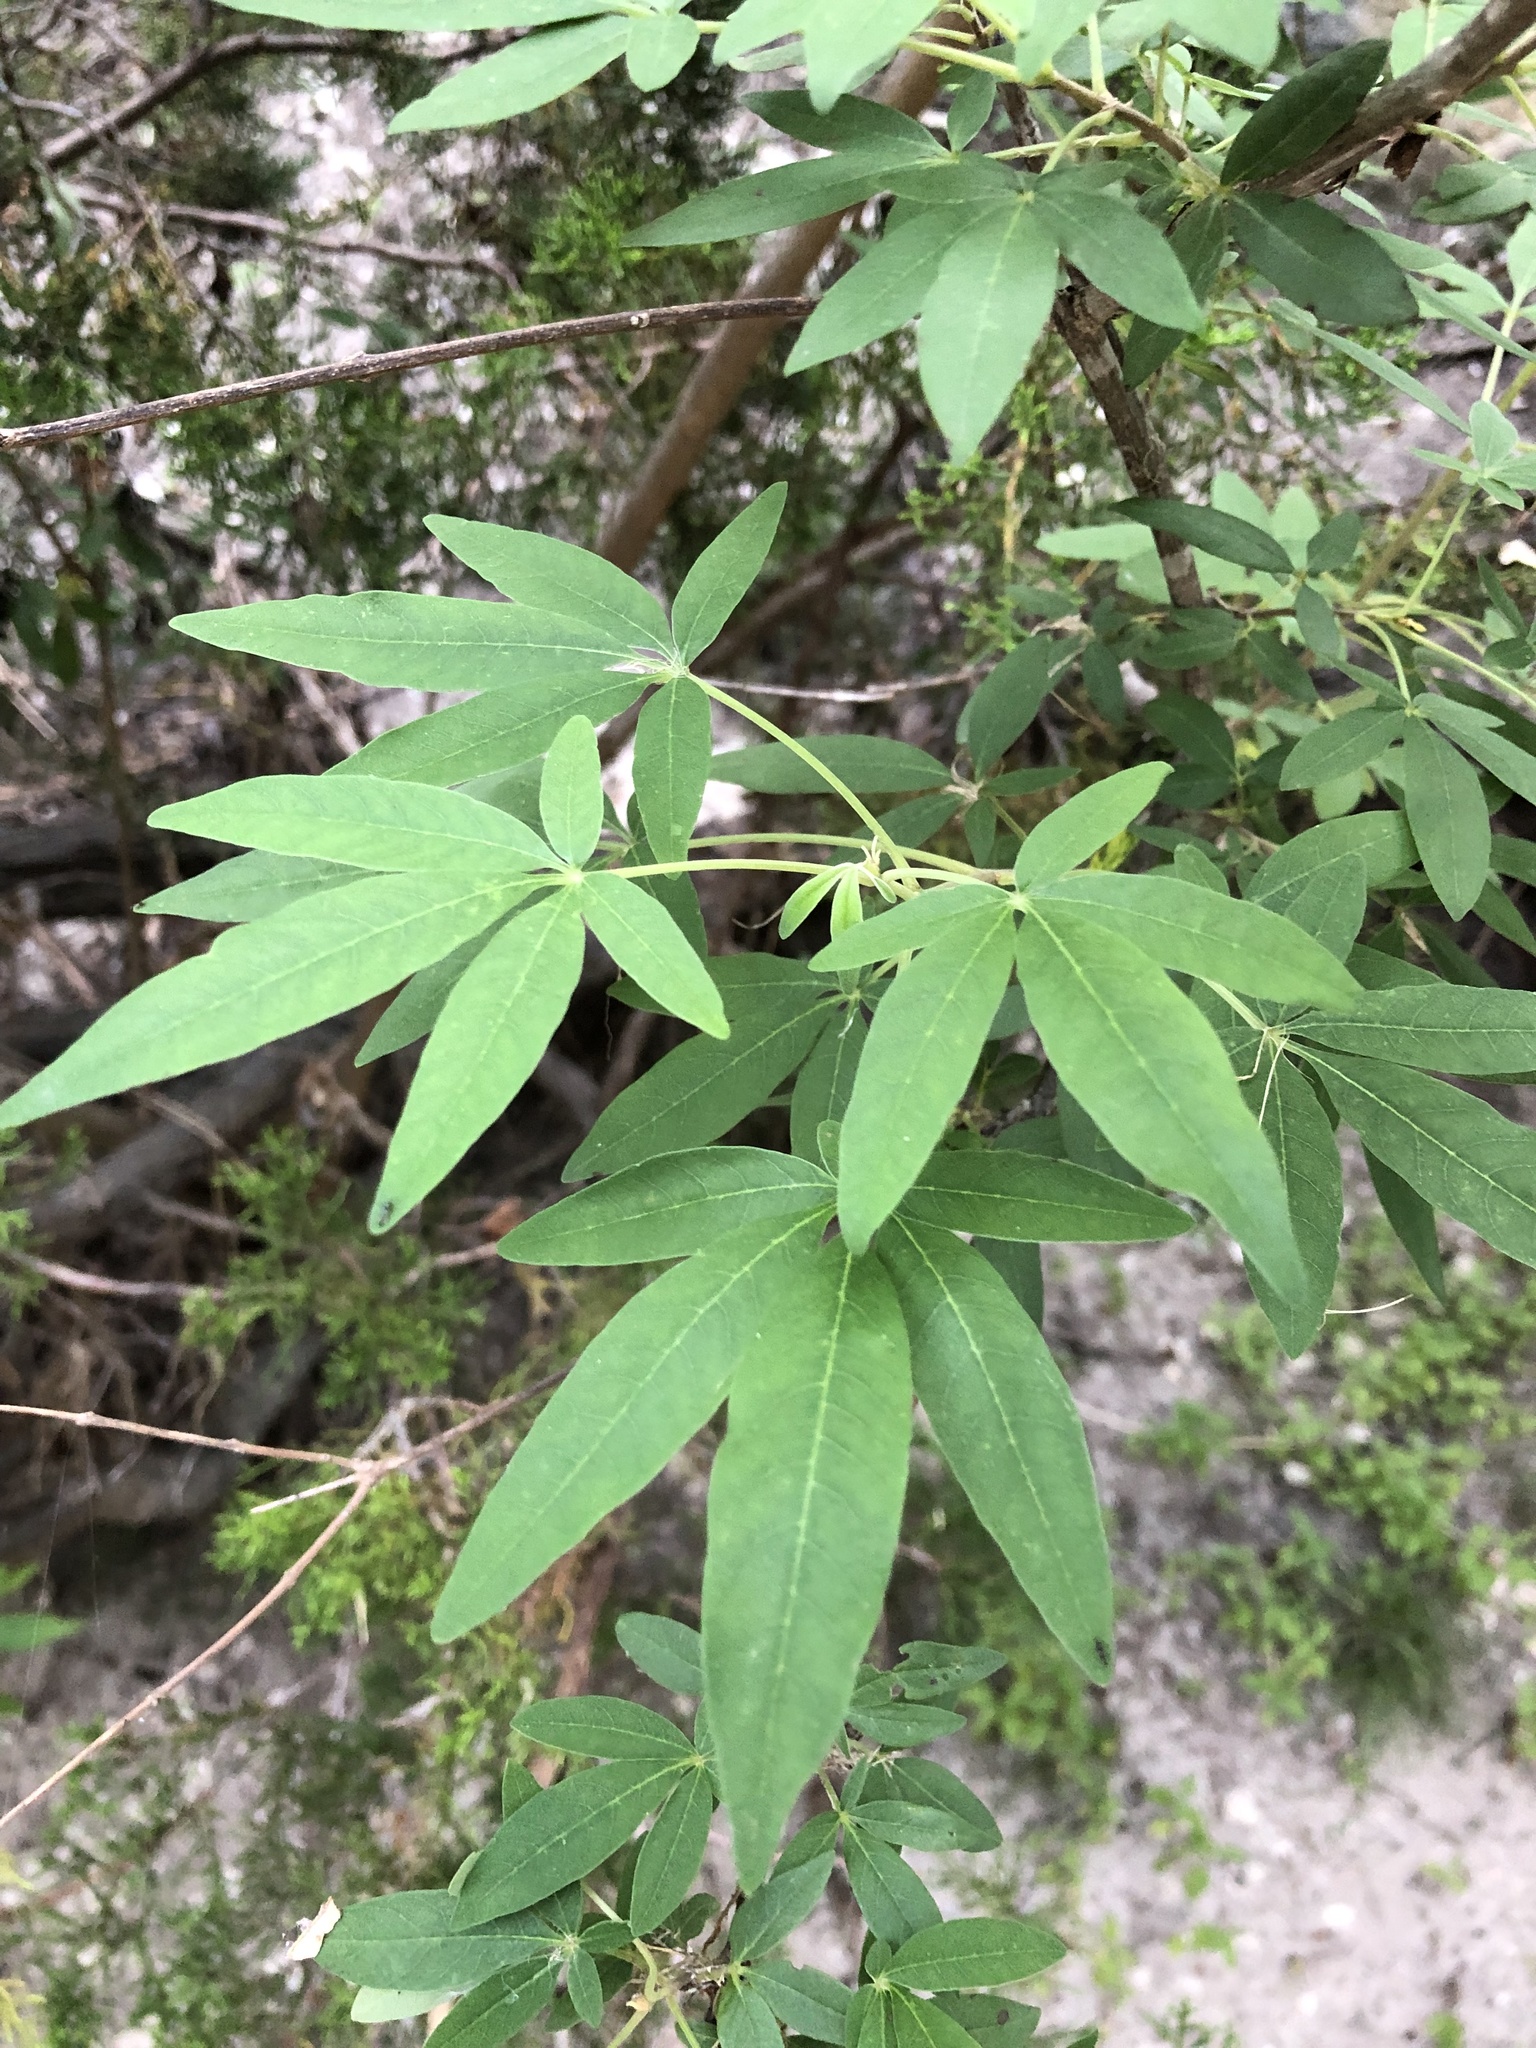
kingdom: Plantae
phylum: Tracheophyta
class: Magnoliopsida
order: Lamiales
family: Lamiaceae
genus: Vitex
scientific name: Vitex agnus-castus
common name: Chasteberry
